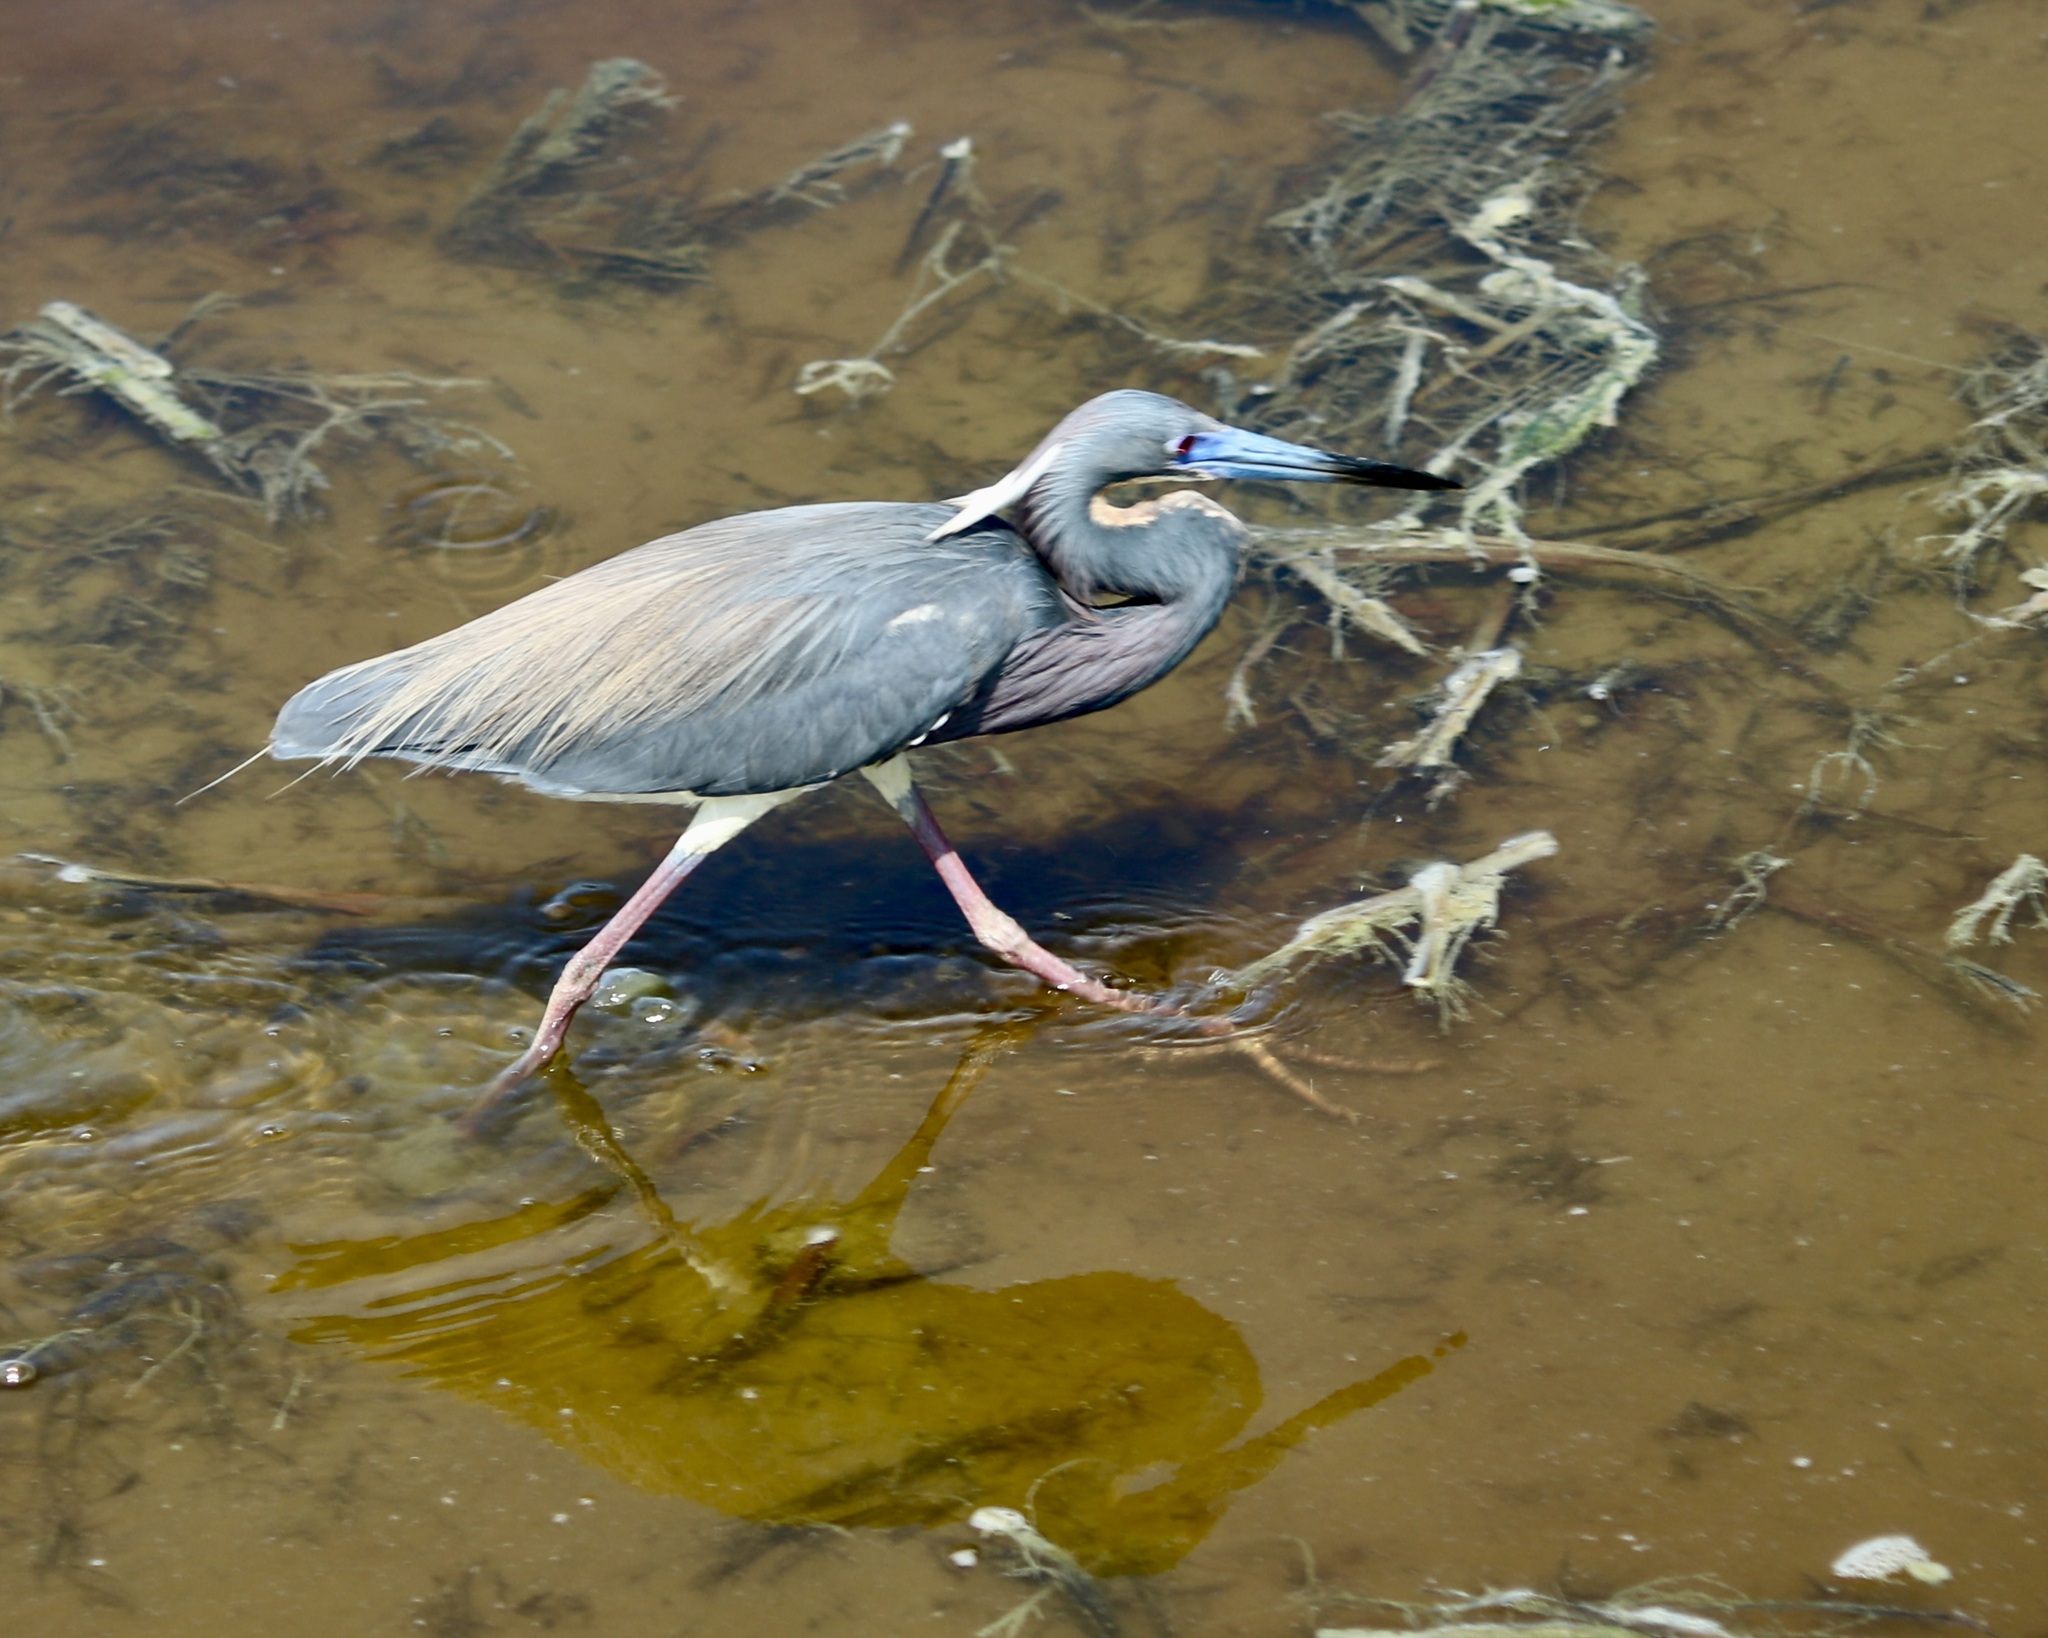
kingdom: Animalia
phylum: Chordata
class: Aves
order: Pelecaniformes
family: Ardeidae
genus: Egretta
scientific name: Egretta tricolor
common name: Tricolored heron
